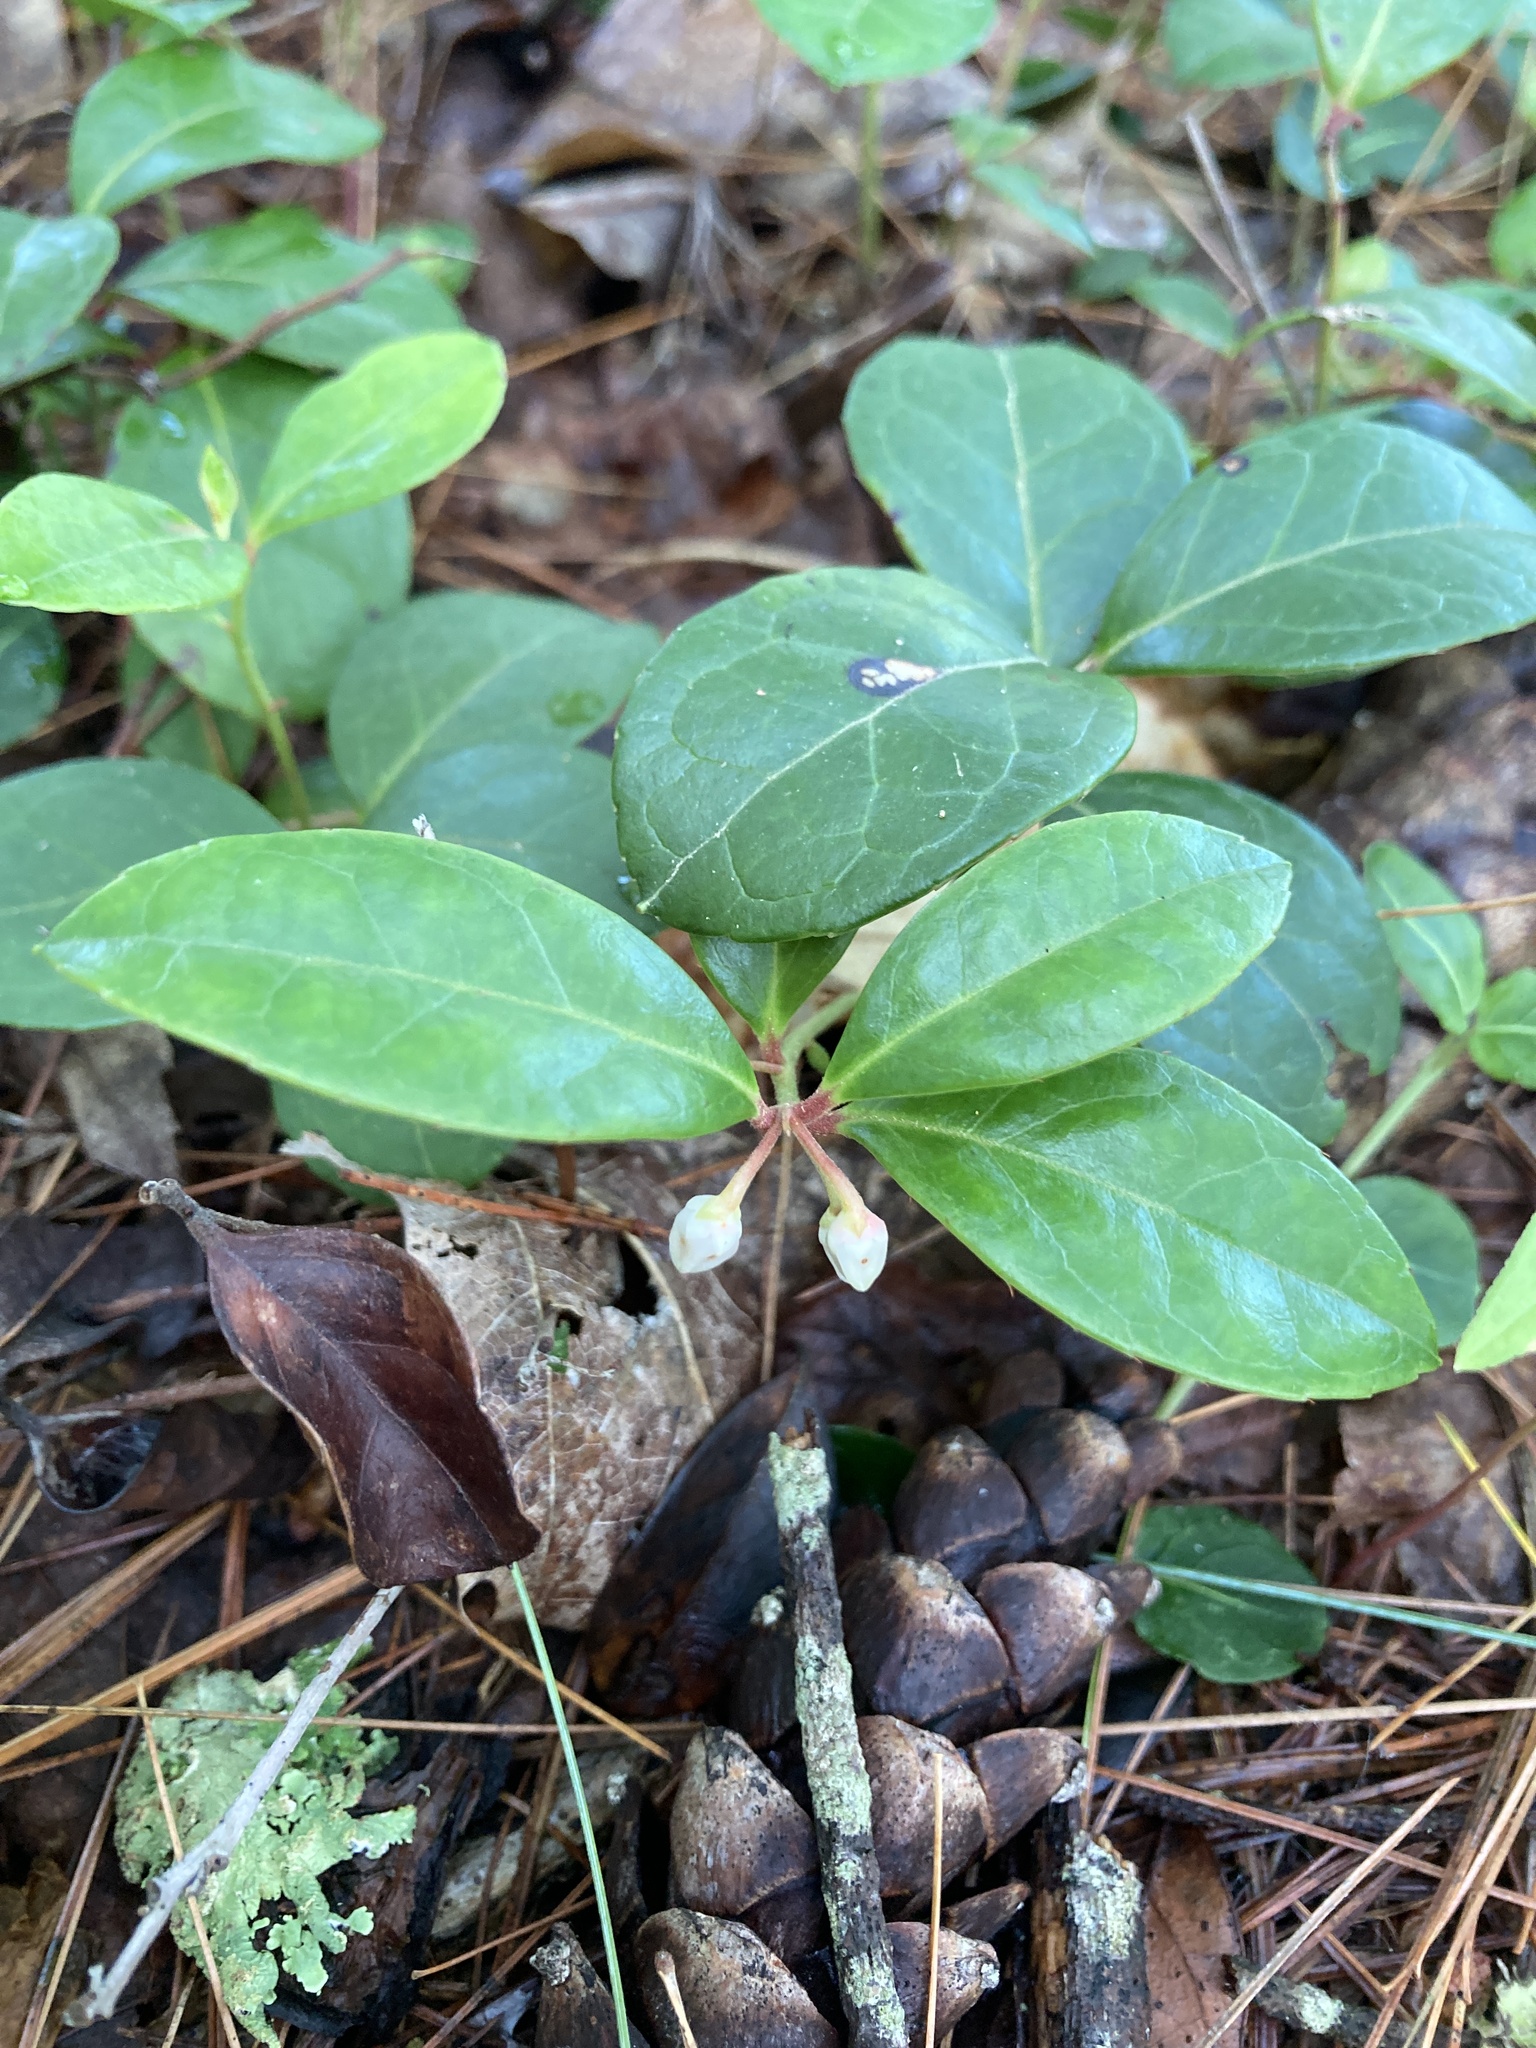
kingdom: Plantae
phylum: Tracheophyta
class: Magnoliopsida
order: Ericales
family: Ericaceae
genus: Gaultheria
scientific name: Gaultheria procumbens
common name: Checkerberry
